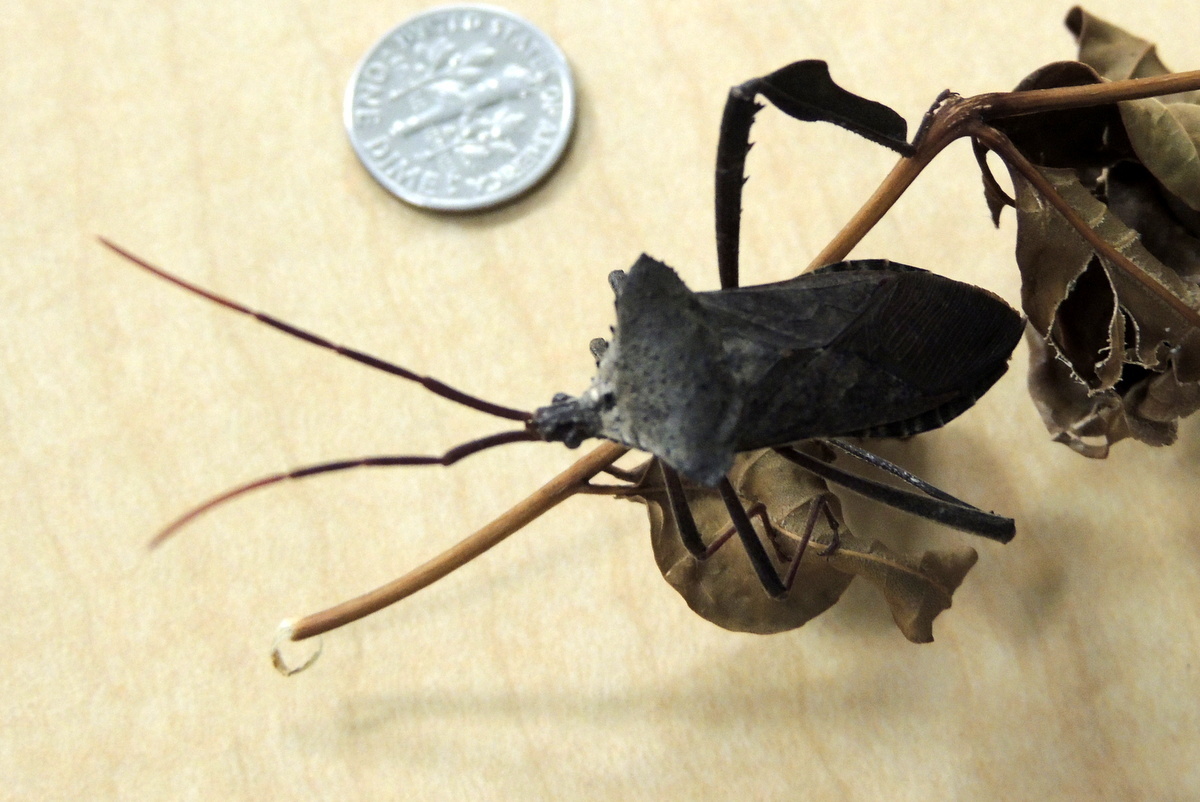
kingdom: Animalia
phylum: Arthropoda
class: Insecta
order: Hemiptera
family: Coreidae
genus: Acanthocephala
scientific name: Acanthocephala declivis
